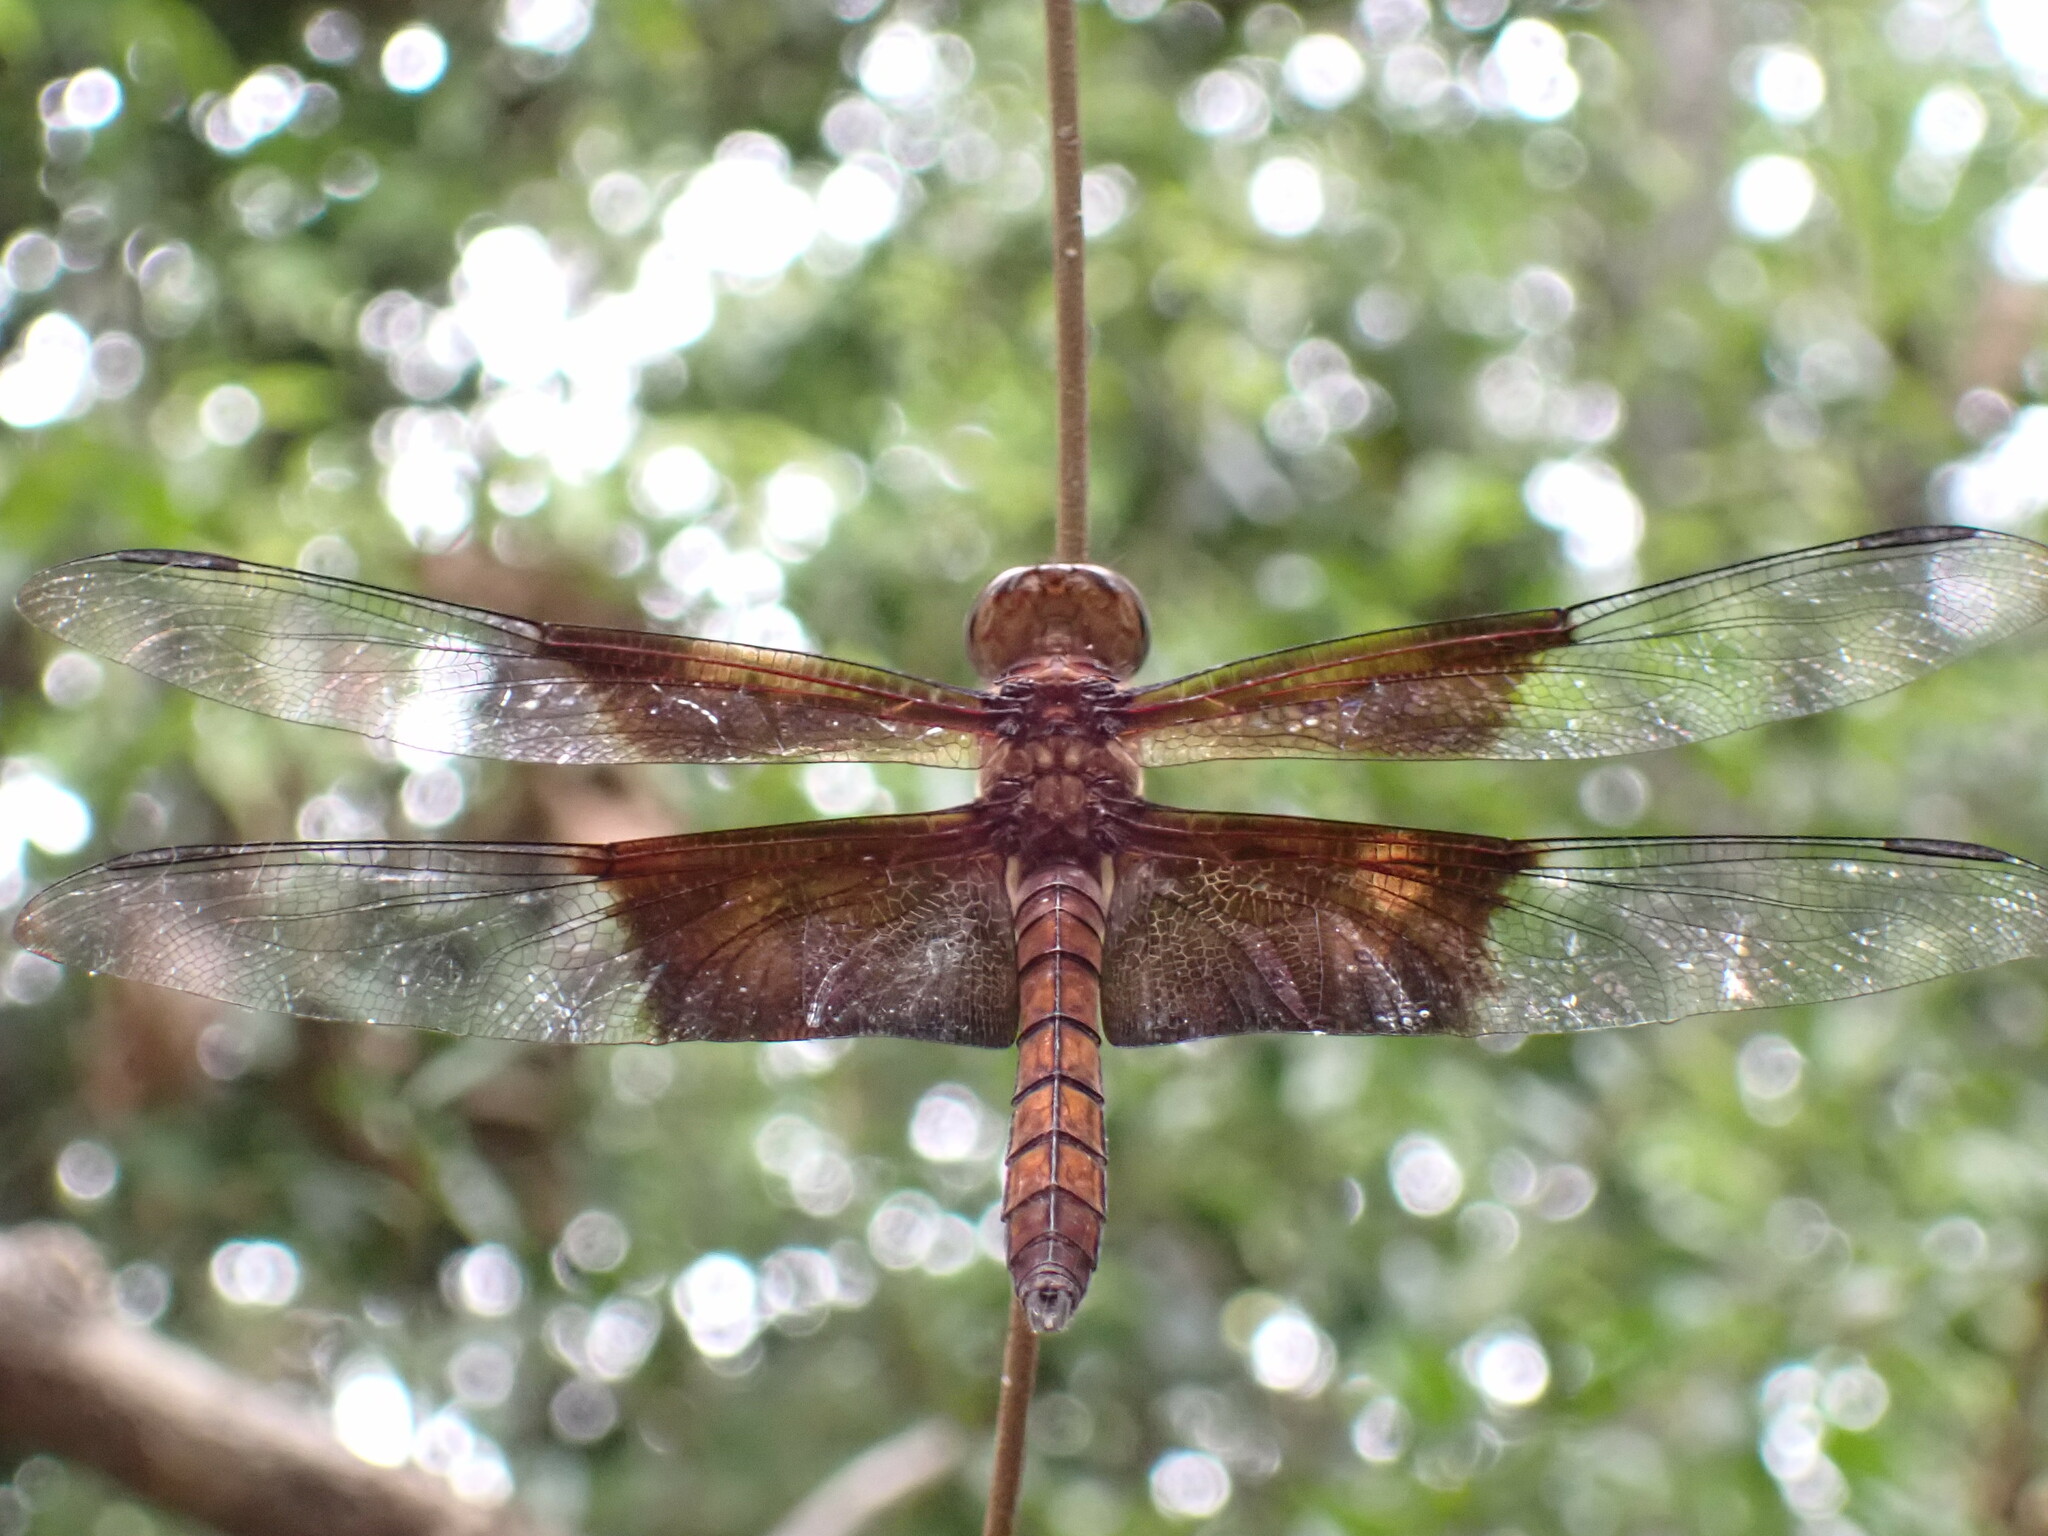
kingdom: Animalia
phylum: Arthropoda
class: Insecta
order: Odonata
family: Libellulidae
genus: Camacinia
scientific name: Camacinia othello
